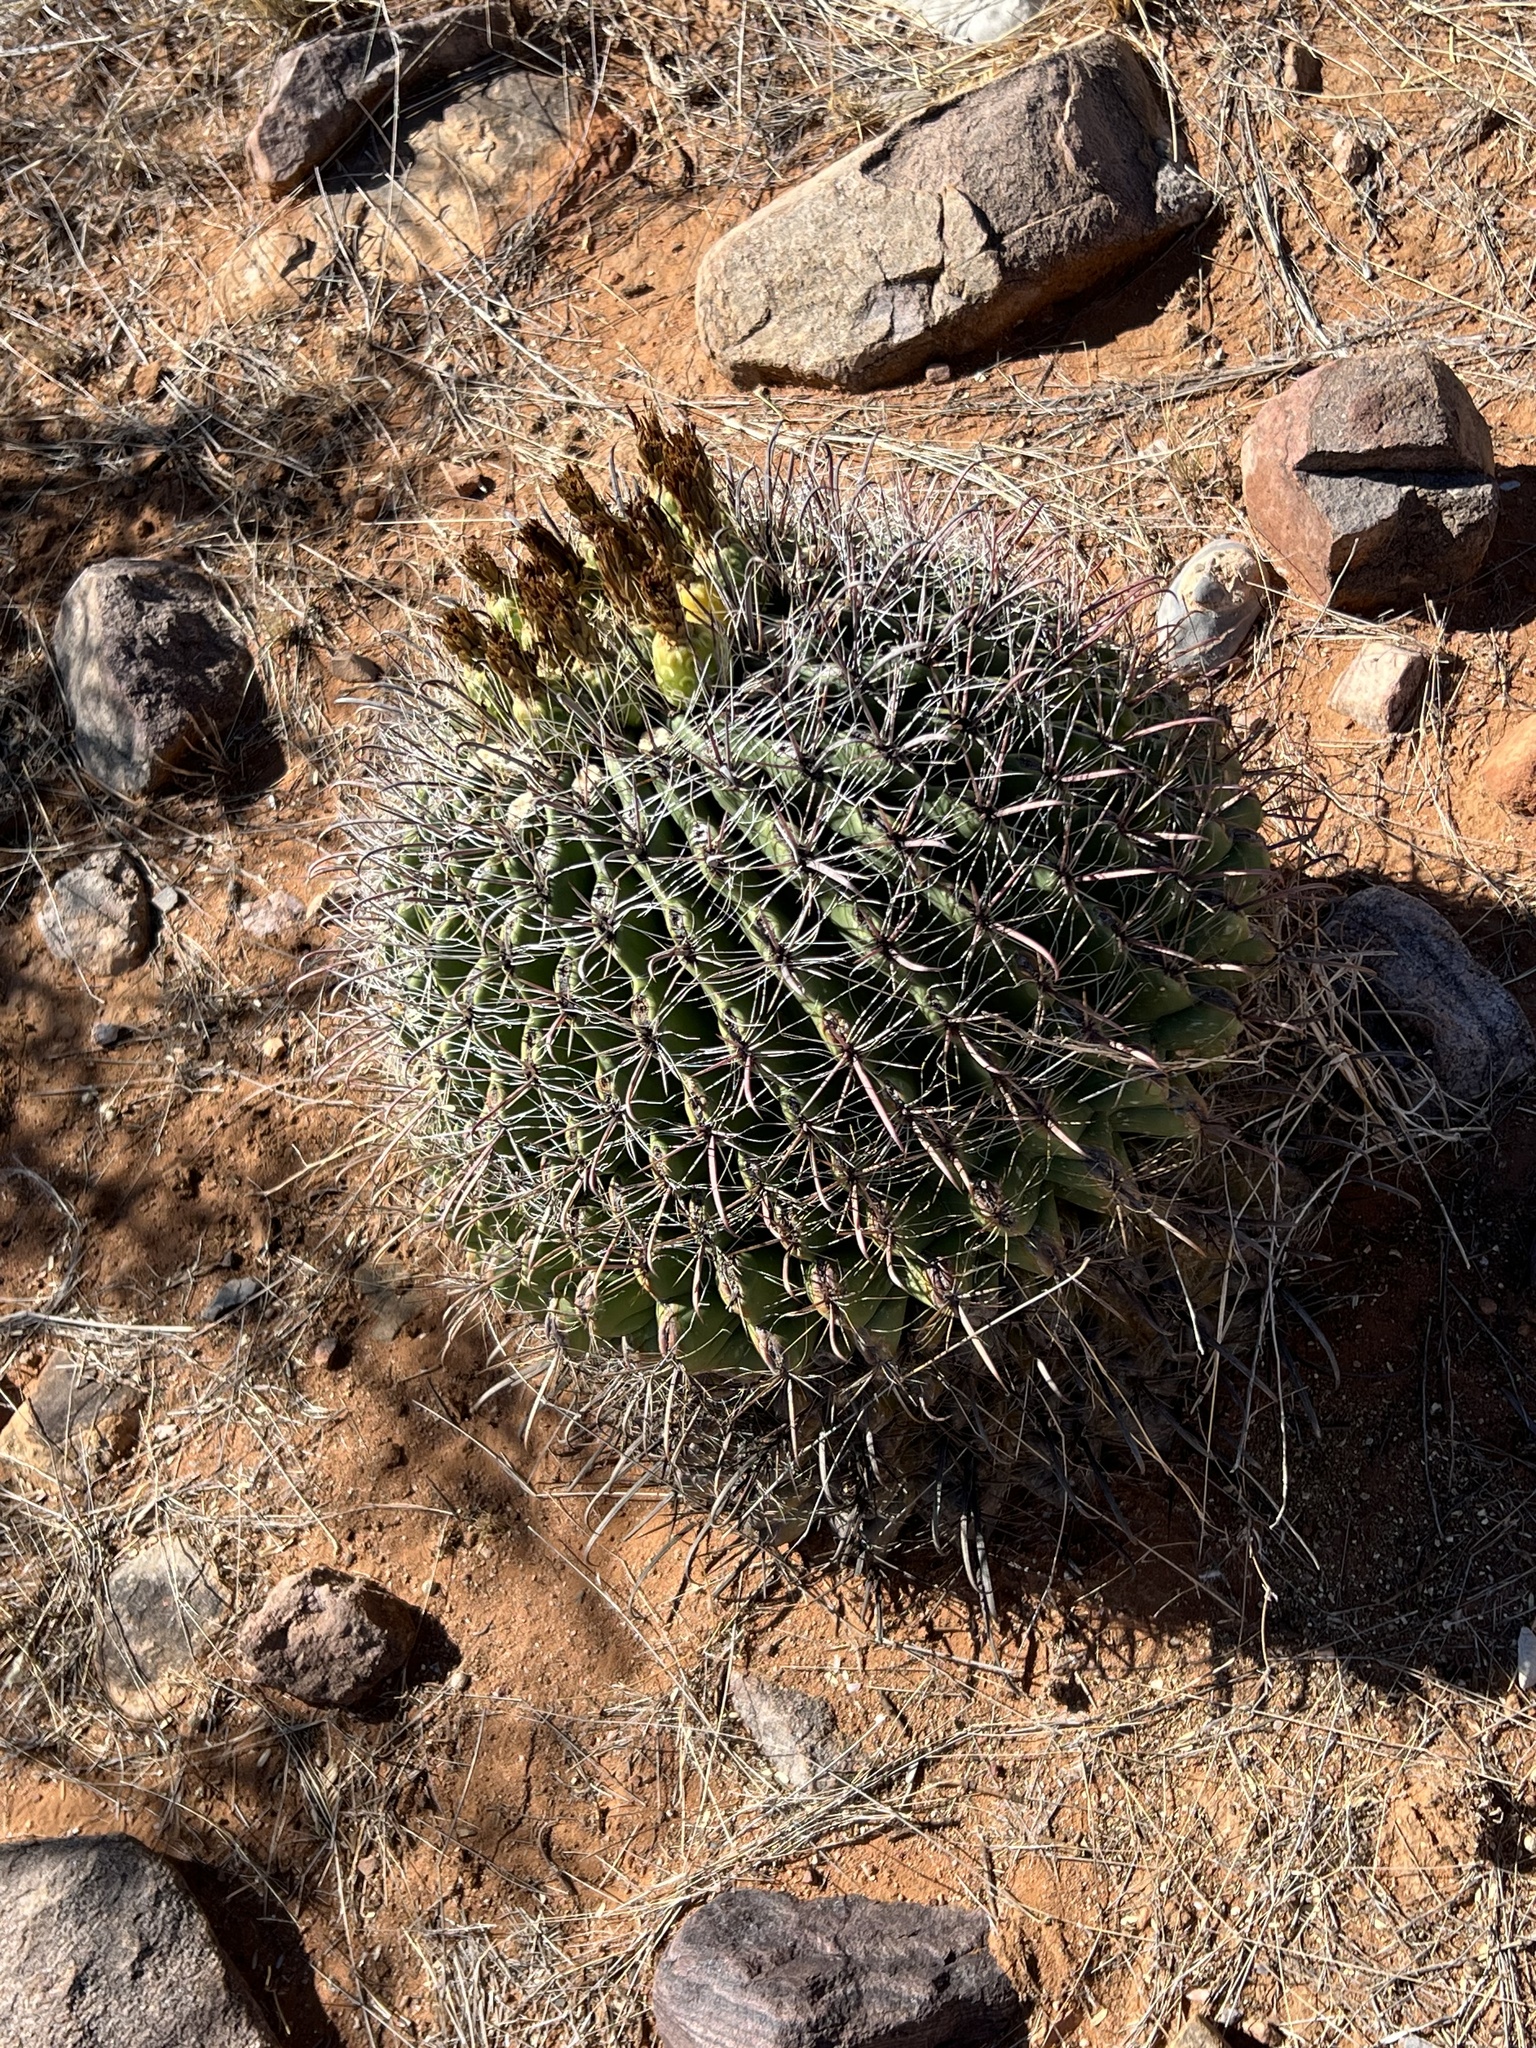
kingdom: Plantae
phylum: Tracheophyta
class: Magnoliopsida
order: Caryophyllales
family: Cactaceae
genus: Ferocactus
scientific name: Ferocactus wislizeni
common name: Candy barrel cactus
